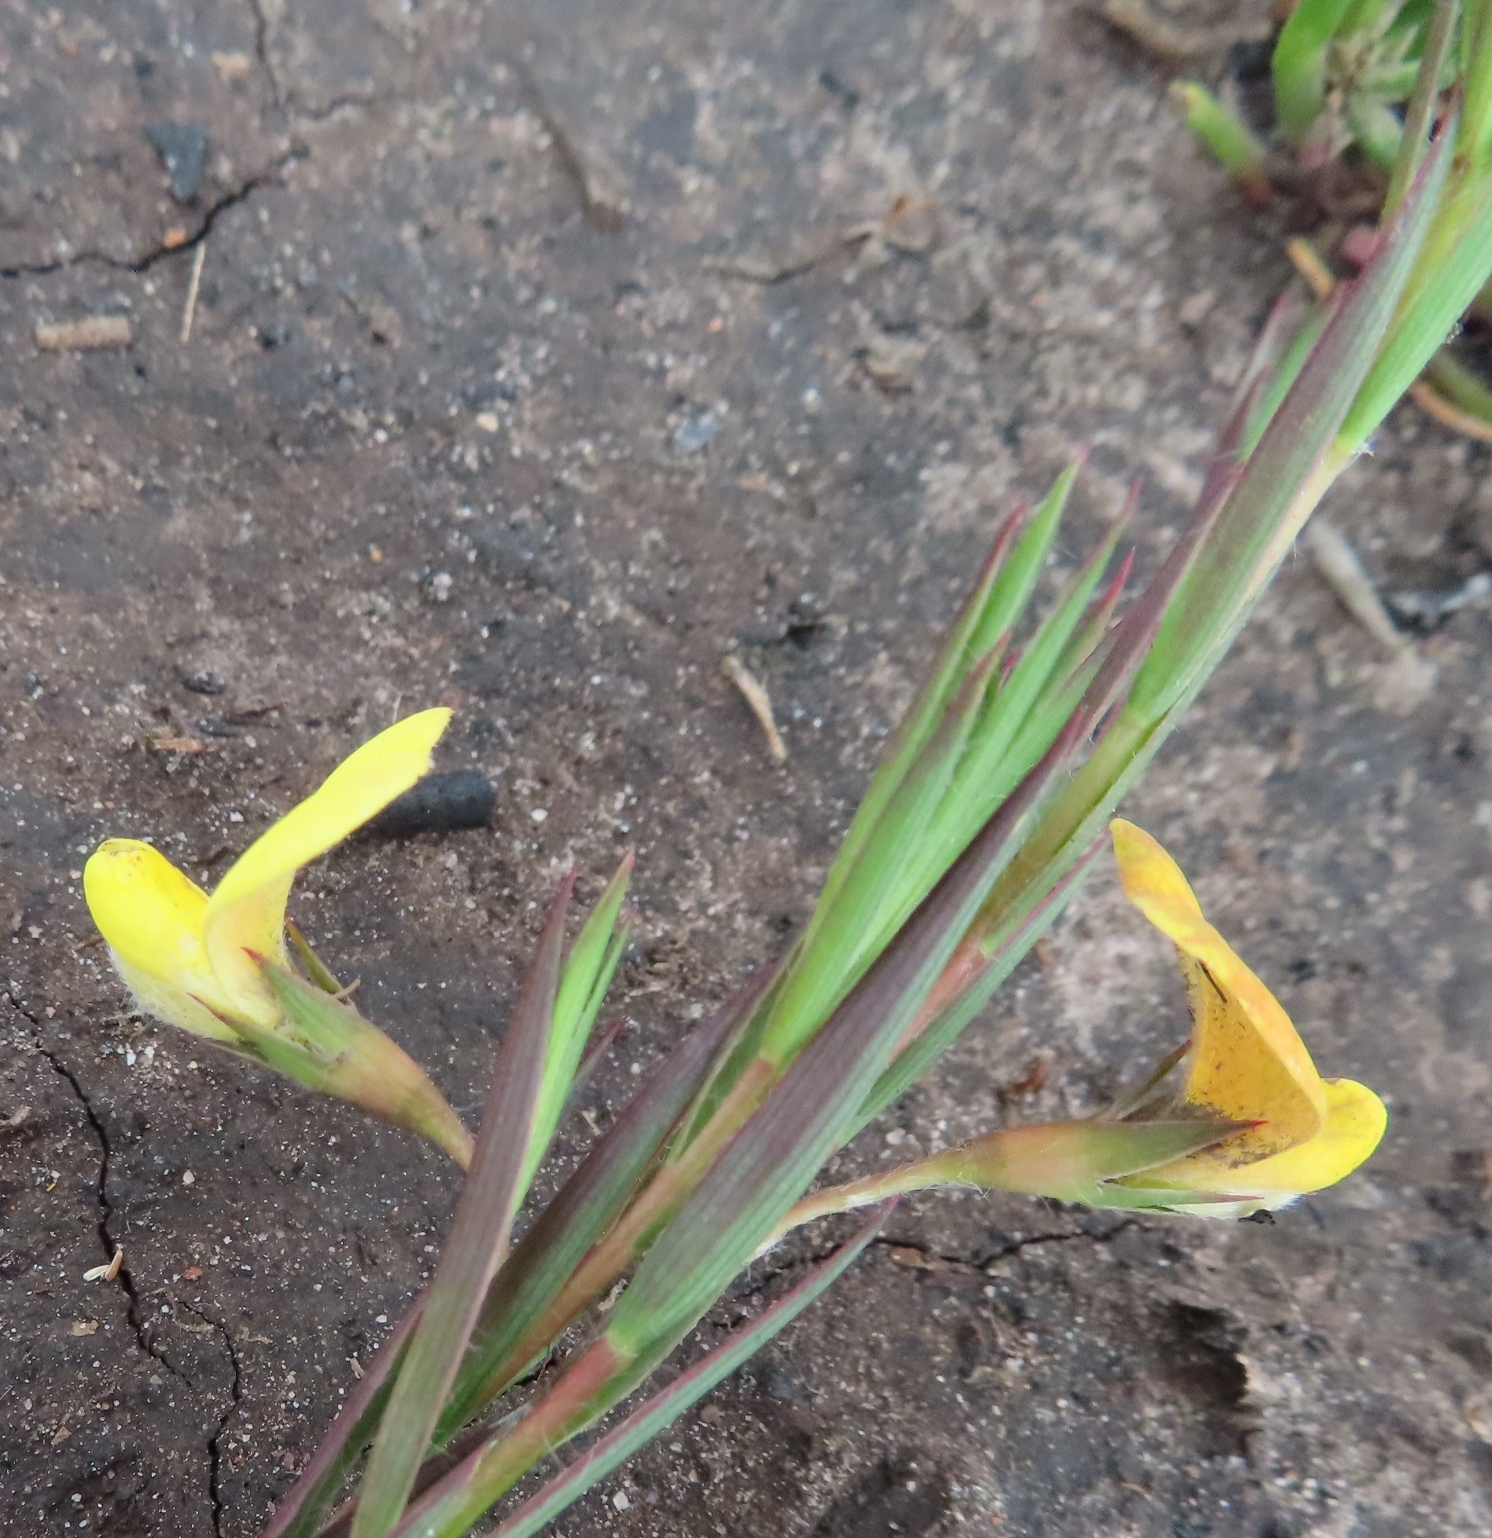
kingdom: Plantae
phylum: Tracheophyta
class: Magnoliopsida
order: Fabales
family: Fabaceae
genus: Aspalathus
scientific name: Aspalathus angustifolia
